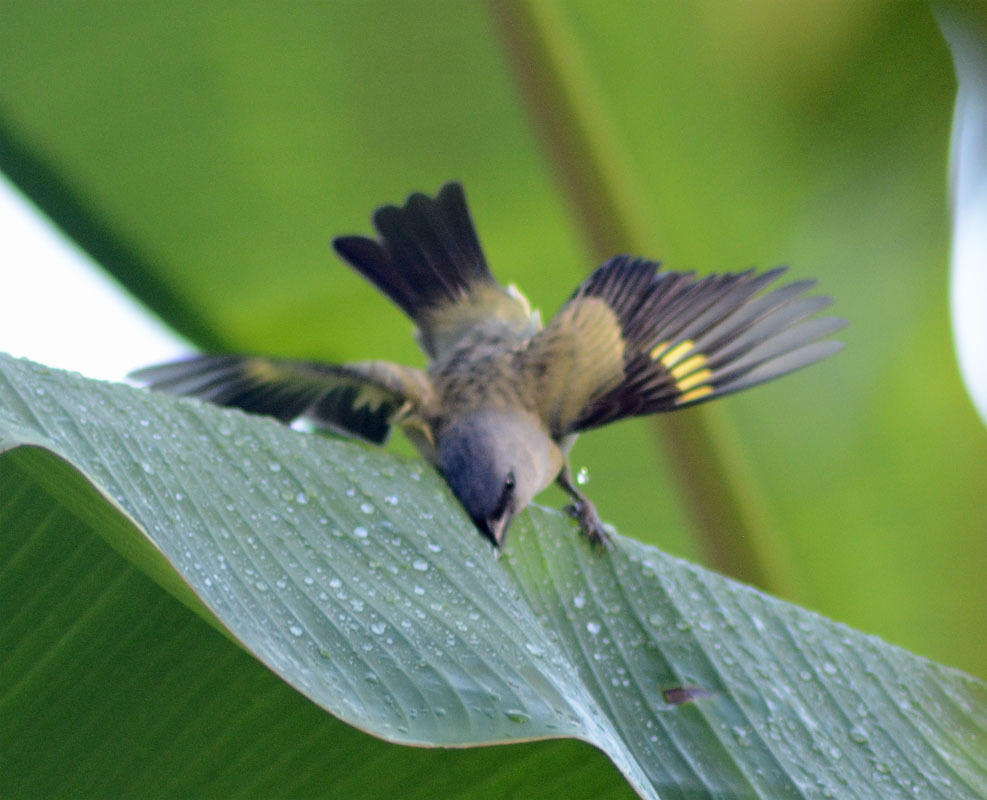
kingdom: Animalia
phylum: Chordata
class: Aves
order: Passeriformes
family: Thraupidae
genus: Thraupis
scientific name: Thraupis abbas
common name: Yellow-winged tanager
